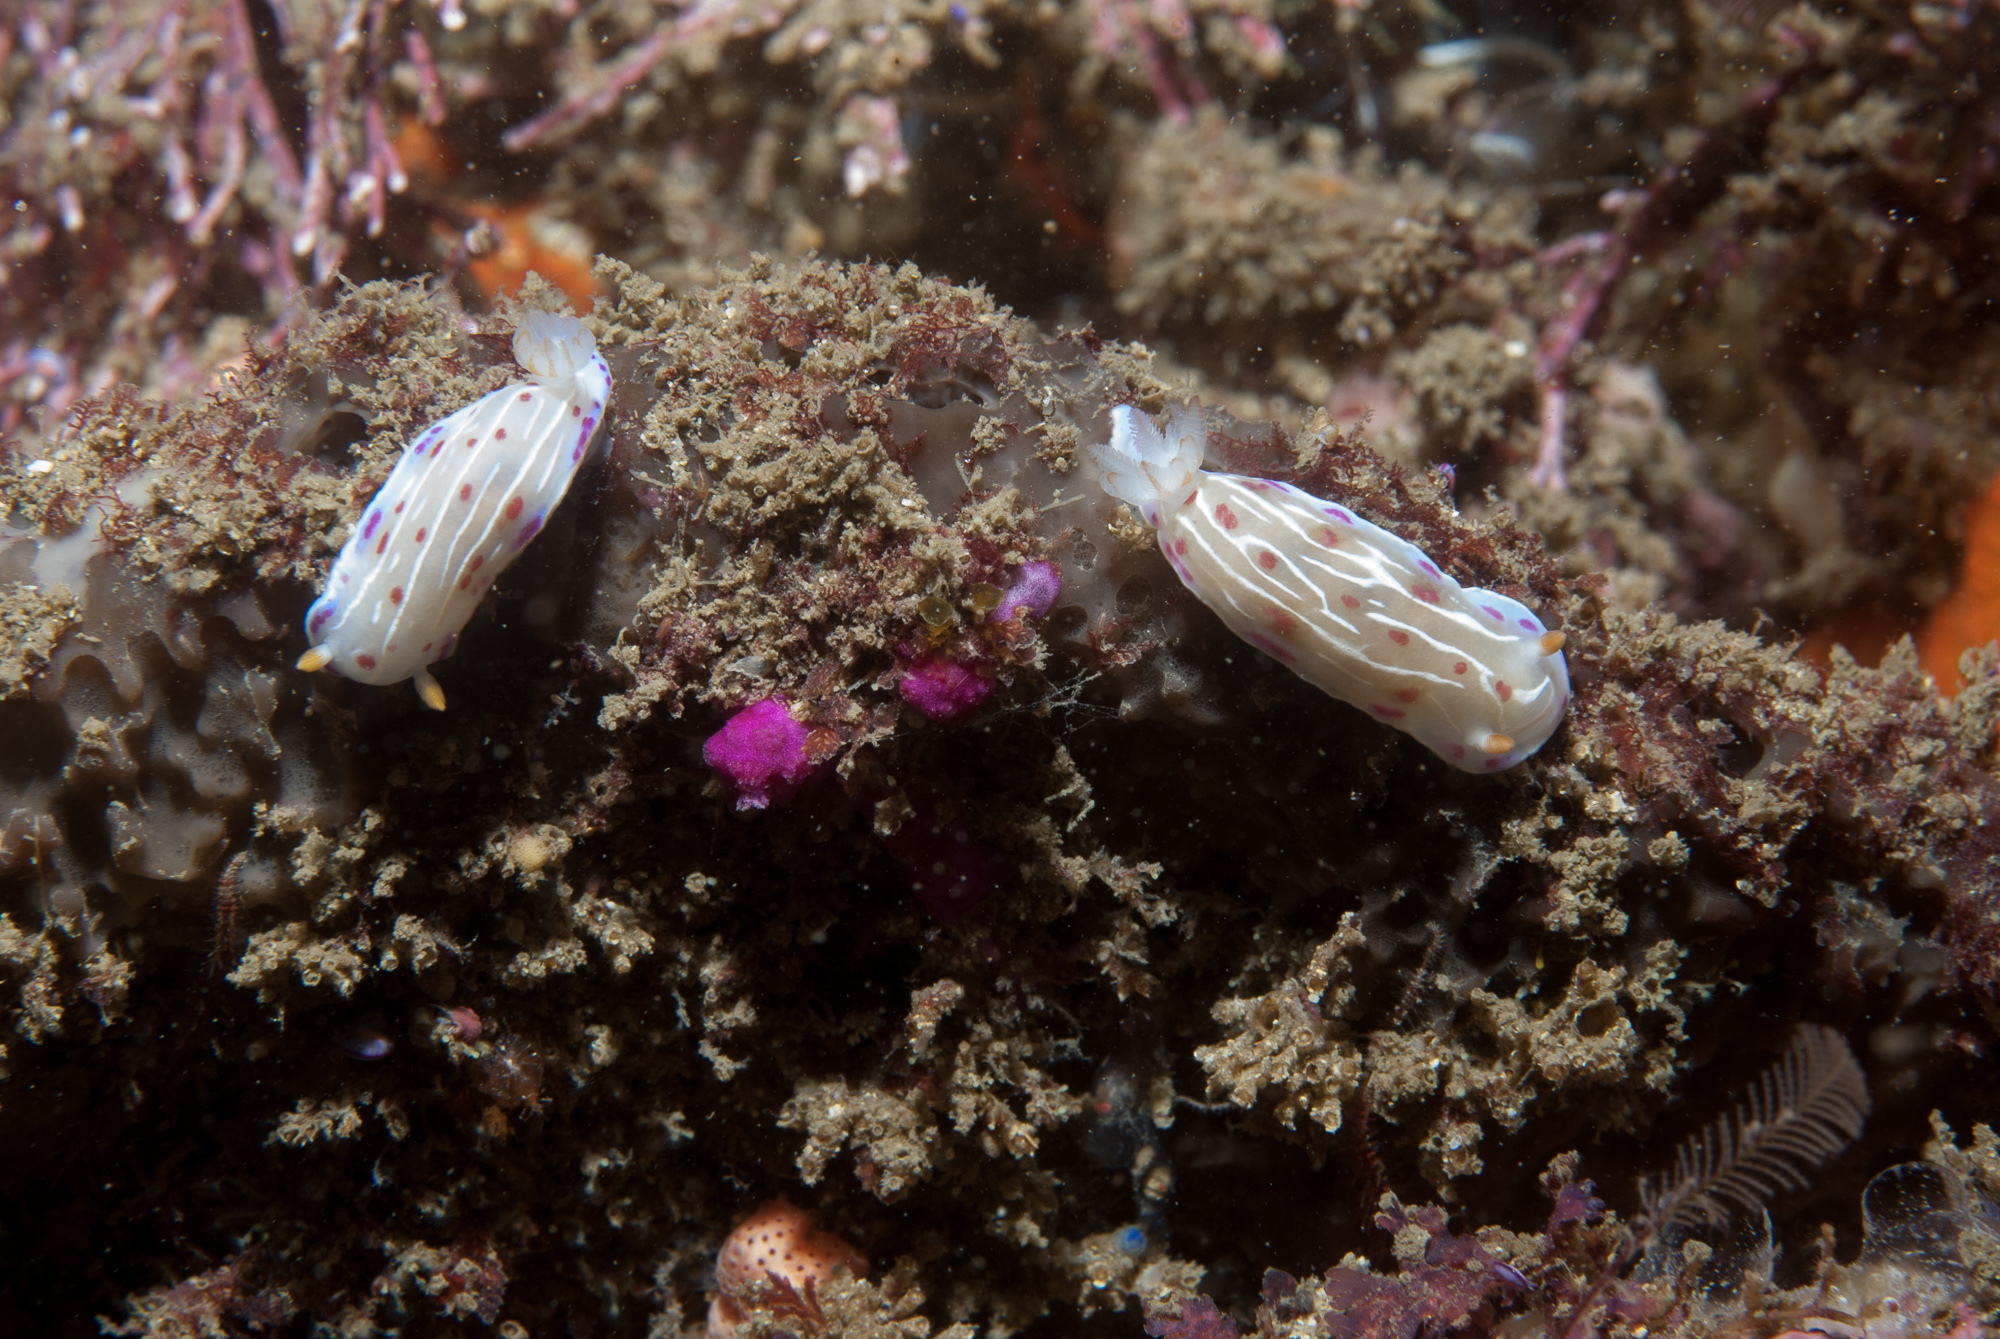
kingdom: Animalia
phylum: Mollusca
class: Gastropoda
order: Nudibranchia
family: Chromodorididae
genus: Hypselodoris
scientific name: Hypselodoris capensis
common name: Cape dorid
